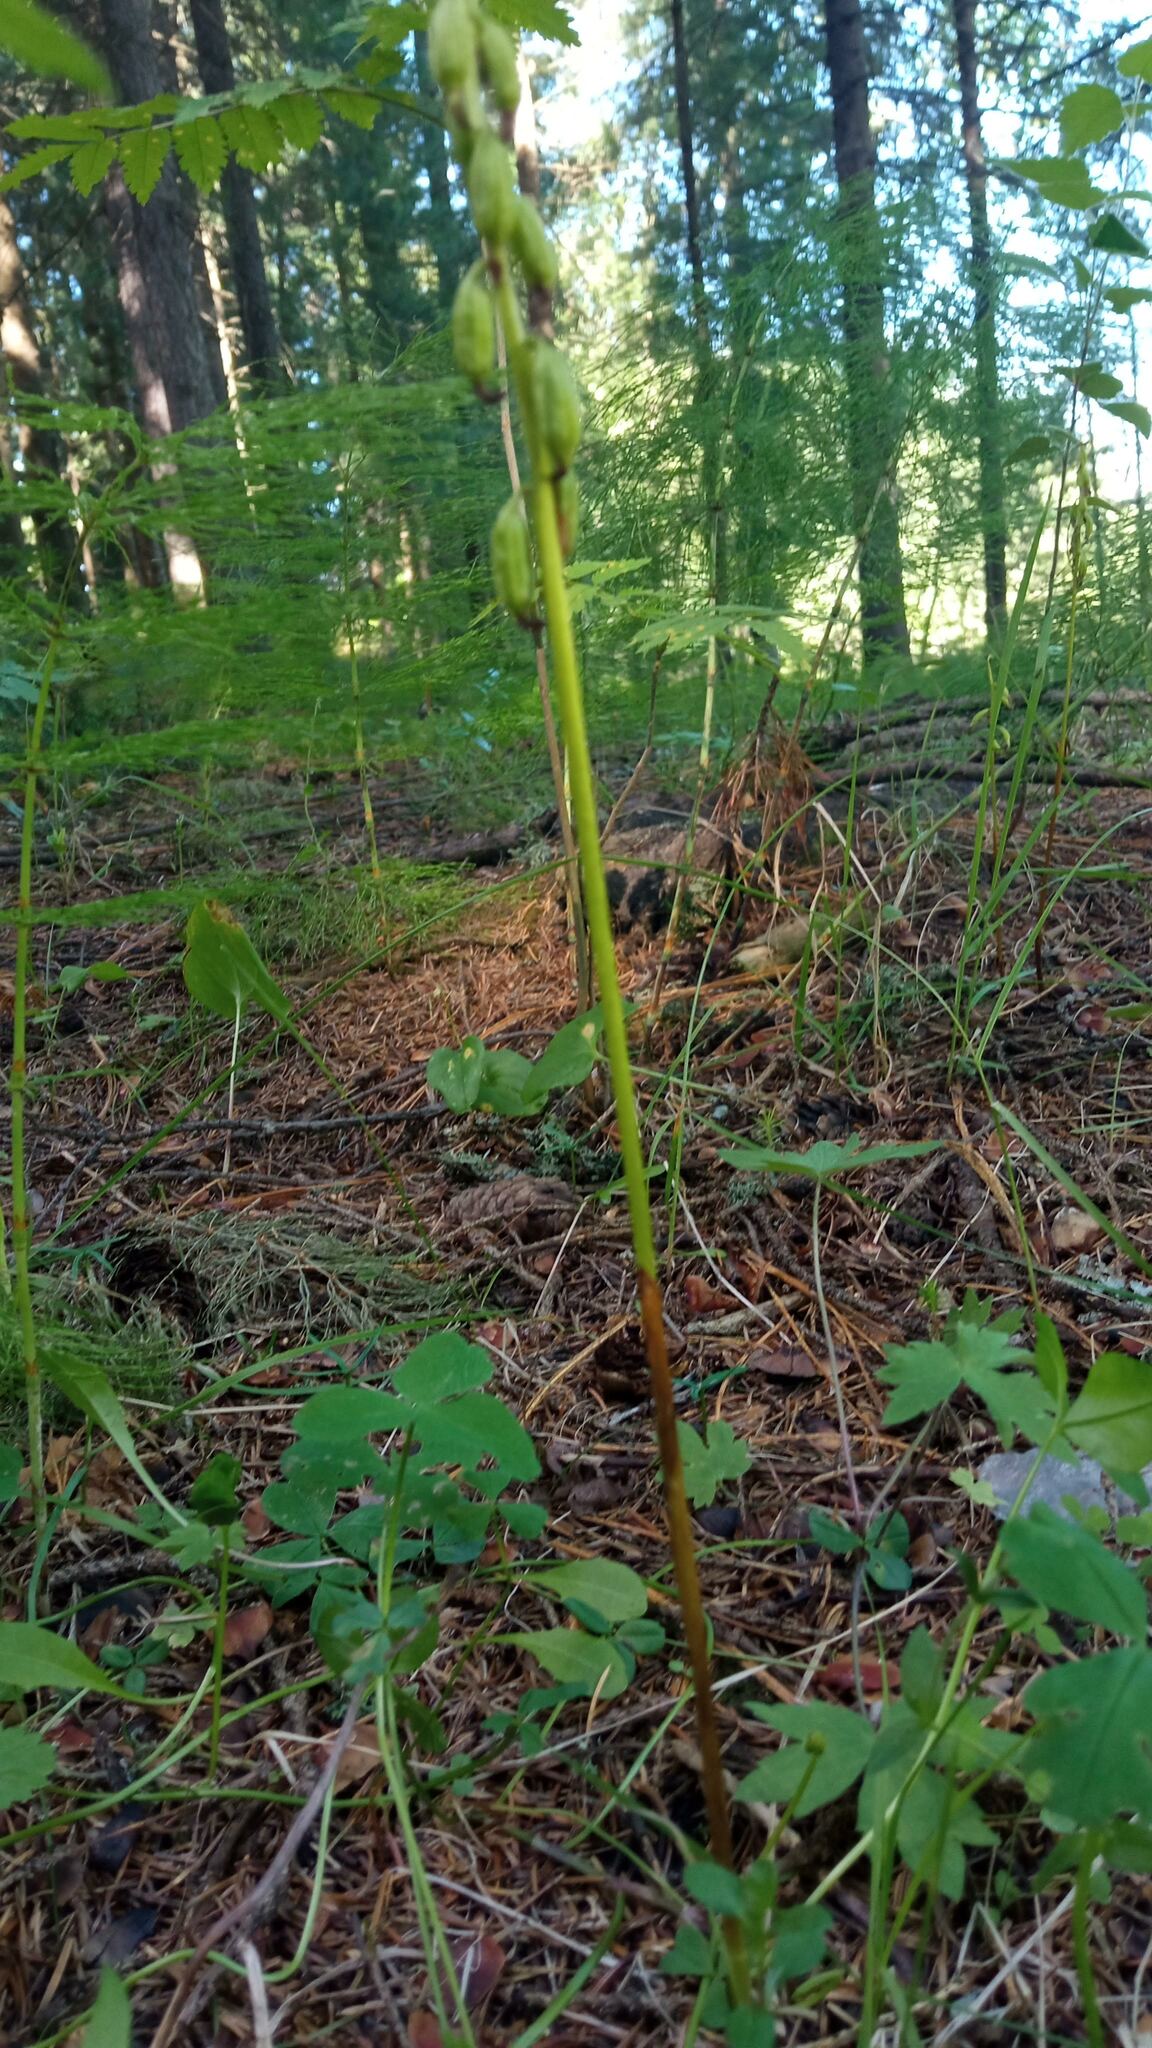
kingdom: Plantae
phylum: Tracheophyta
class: Liliopsida
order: Asparagales
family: Orchidaceae
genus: Corallorhiza
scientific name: Corallorhiza trifida
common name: Yellow coralroot
